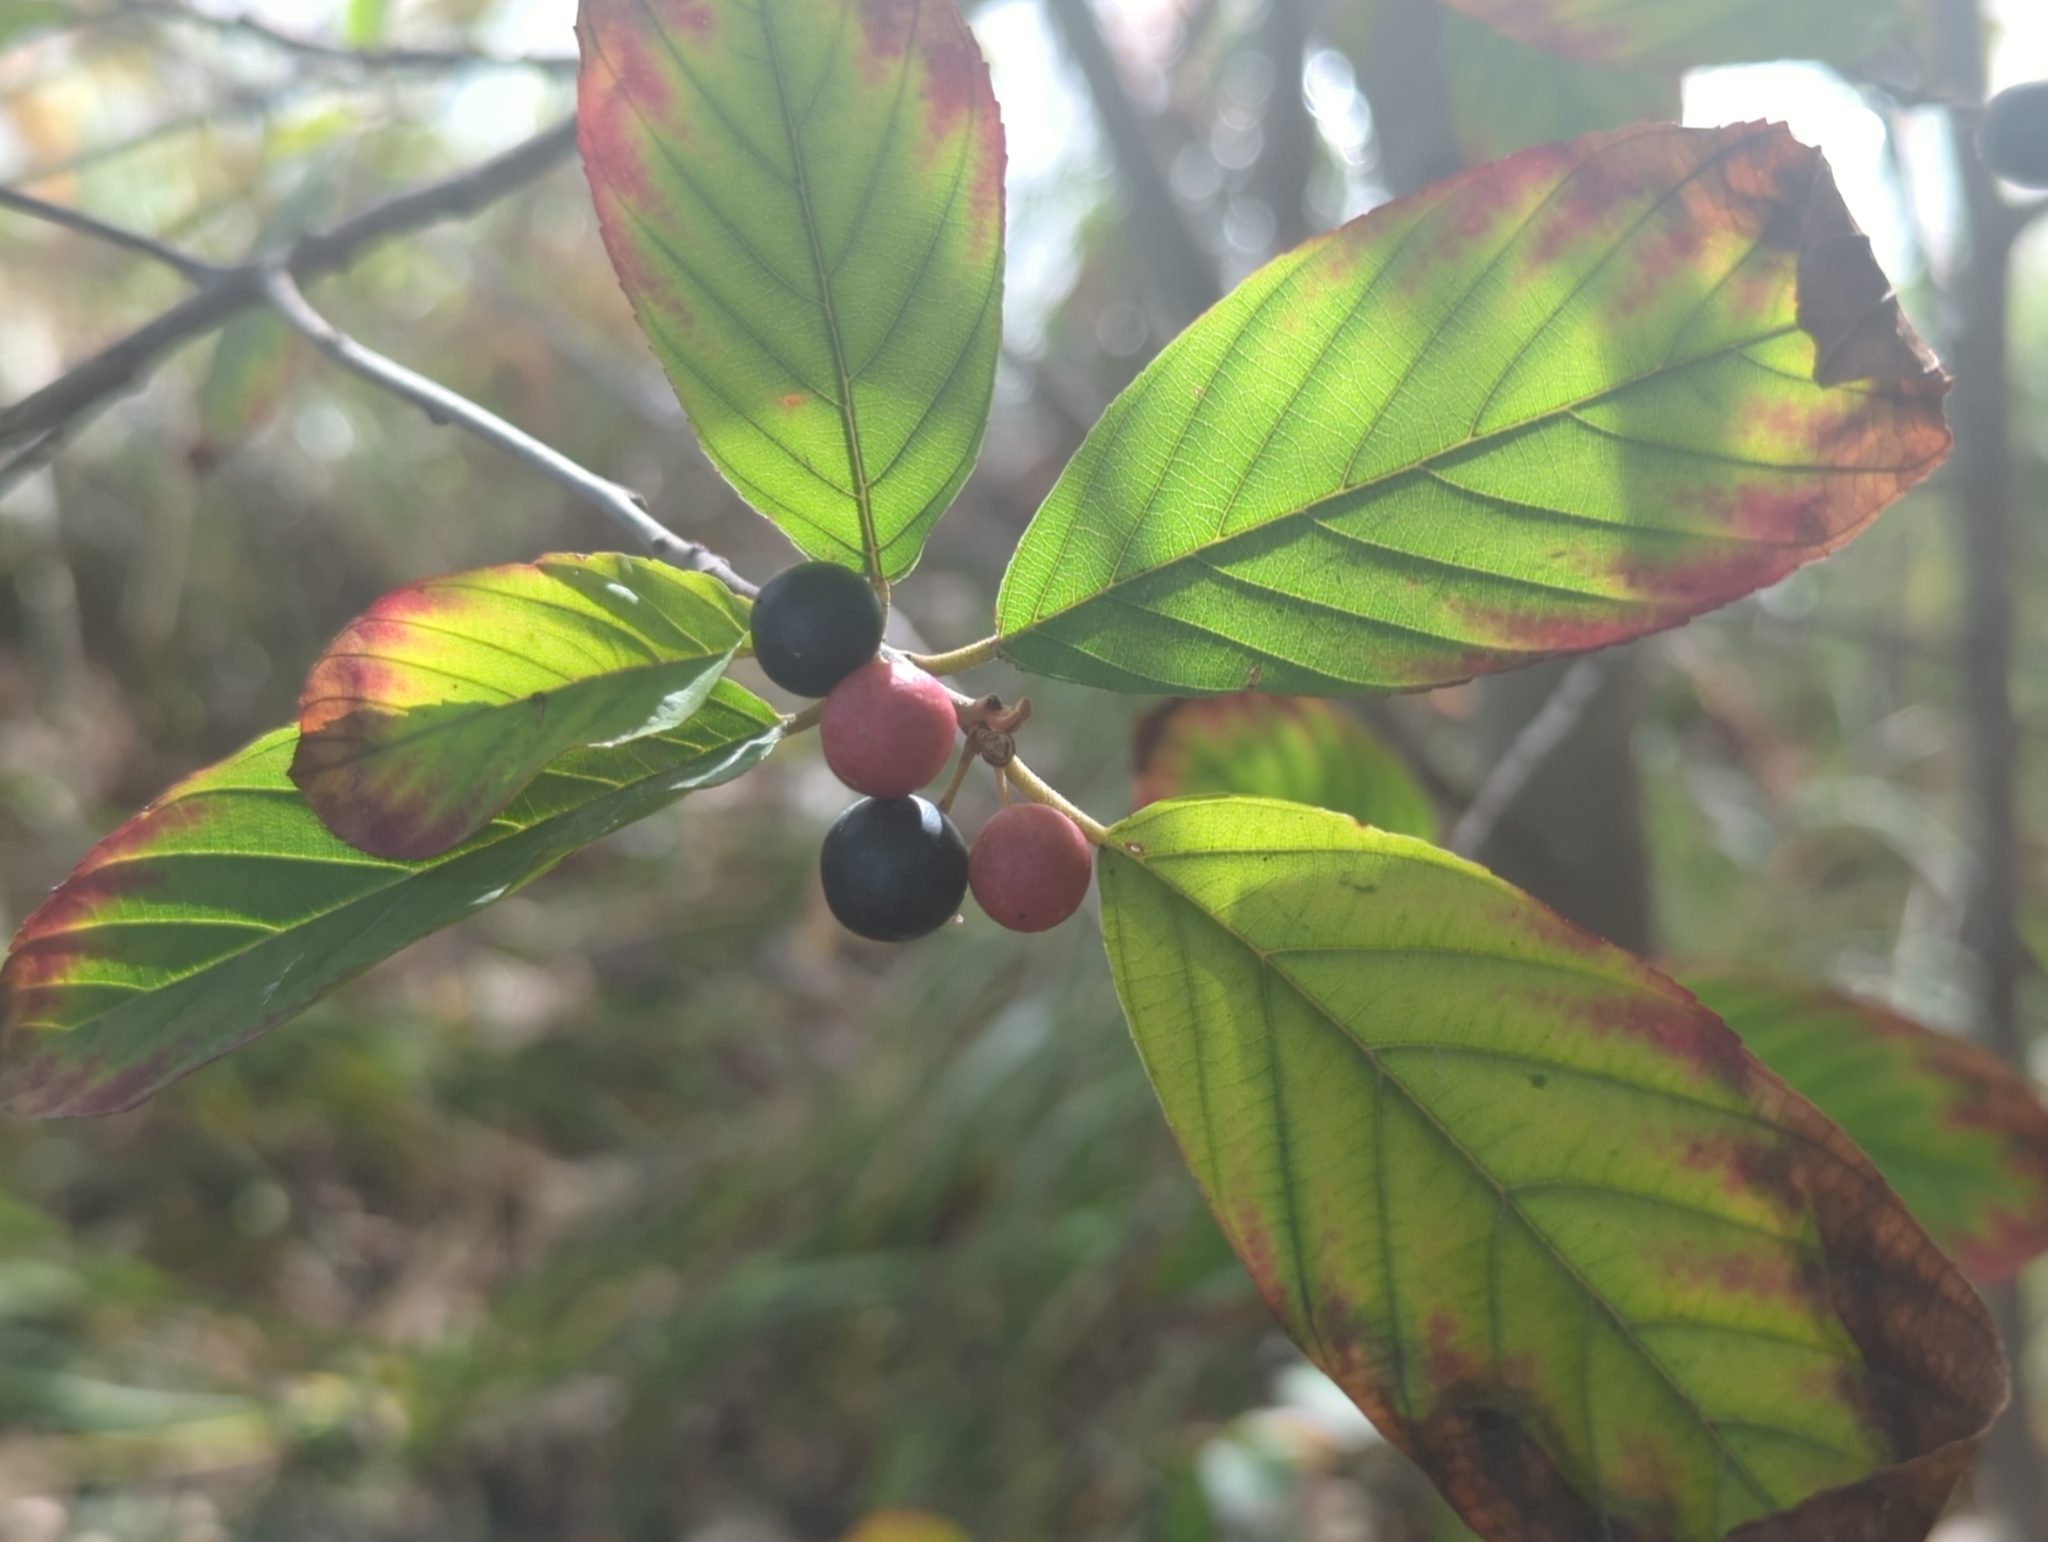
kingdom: Plantae
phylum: Tracheophyta
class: Magnoliopsida
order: Rosales
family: Rhamnaceae
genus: Frangula
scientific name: Frangula caroliniana
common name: Carolina buckthorn
